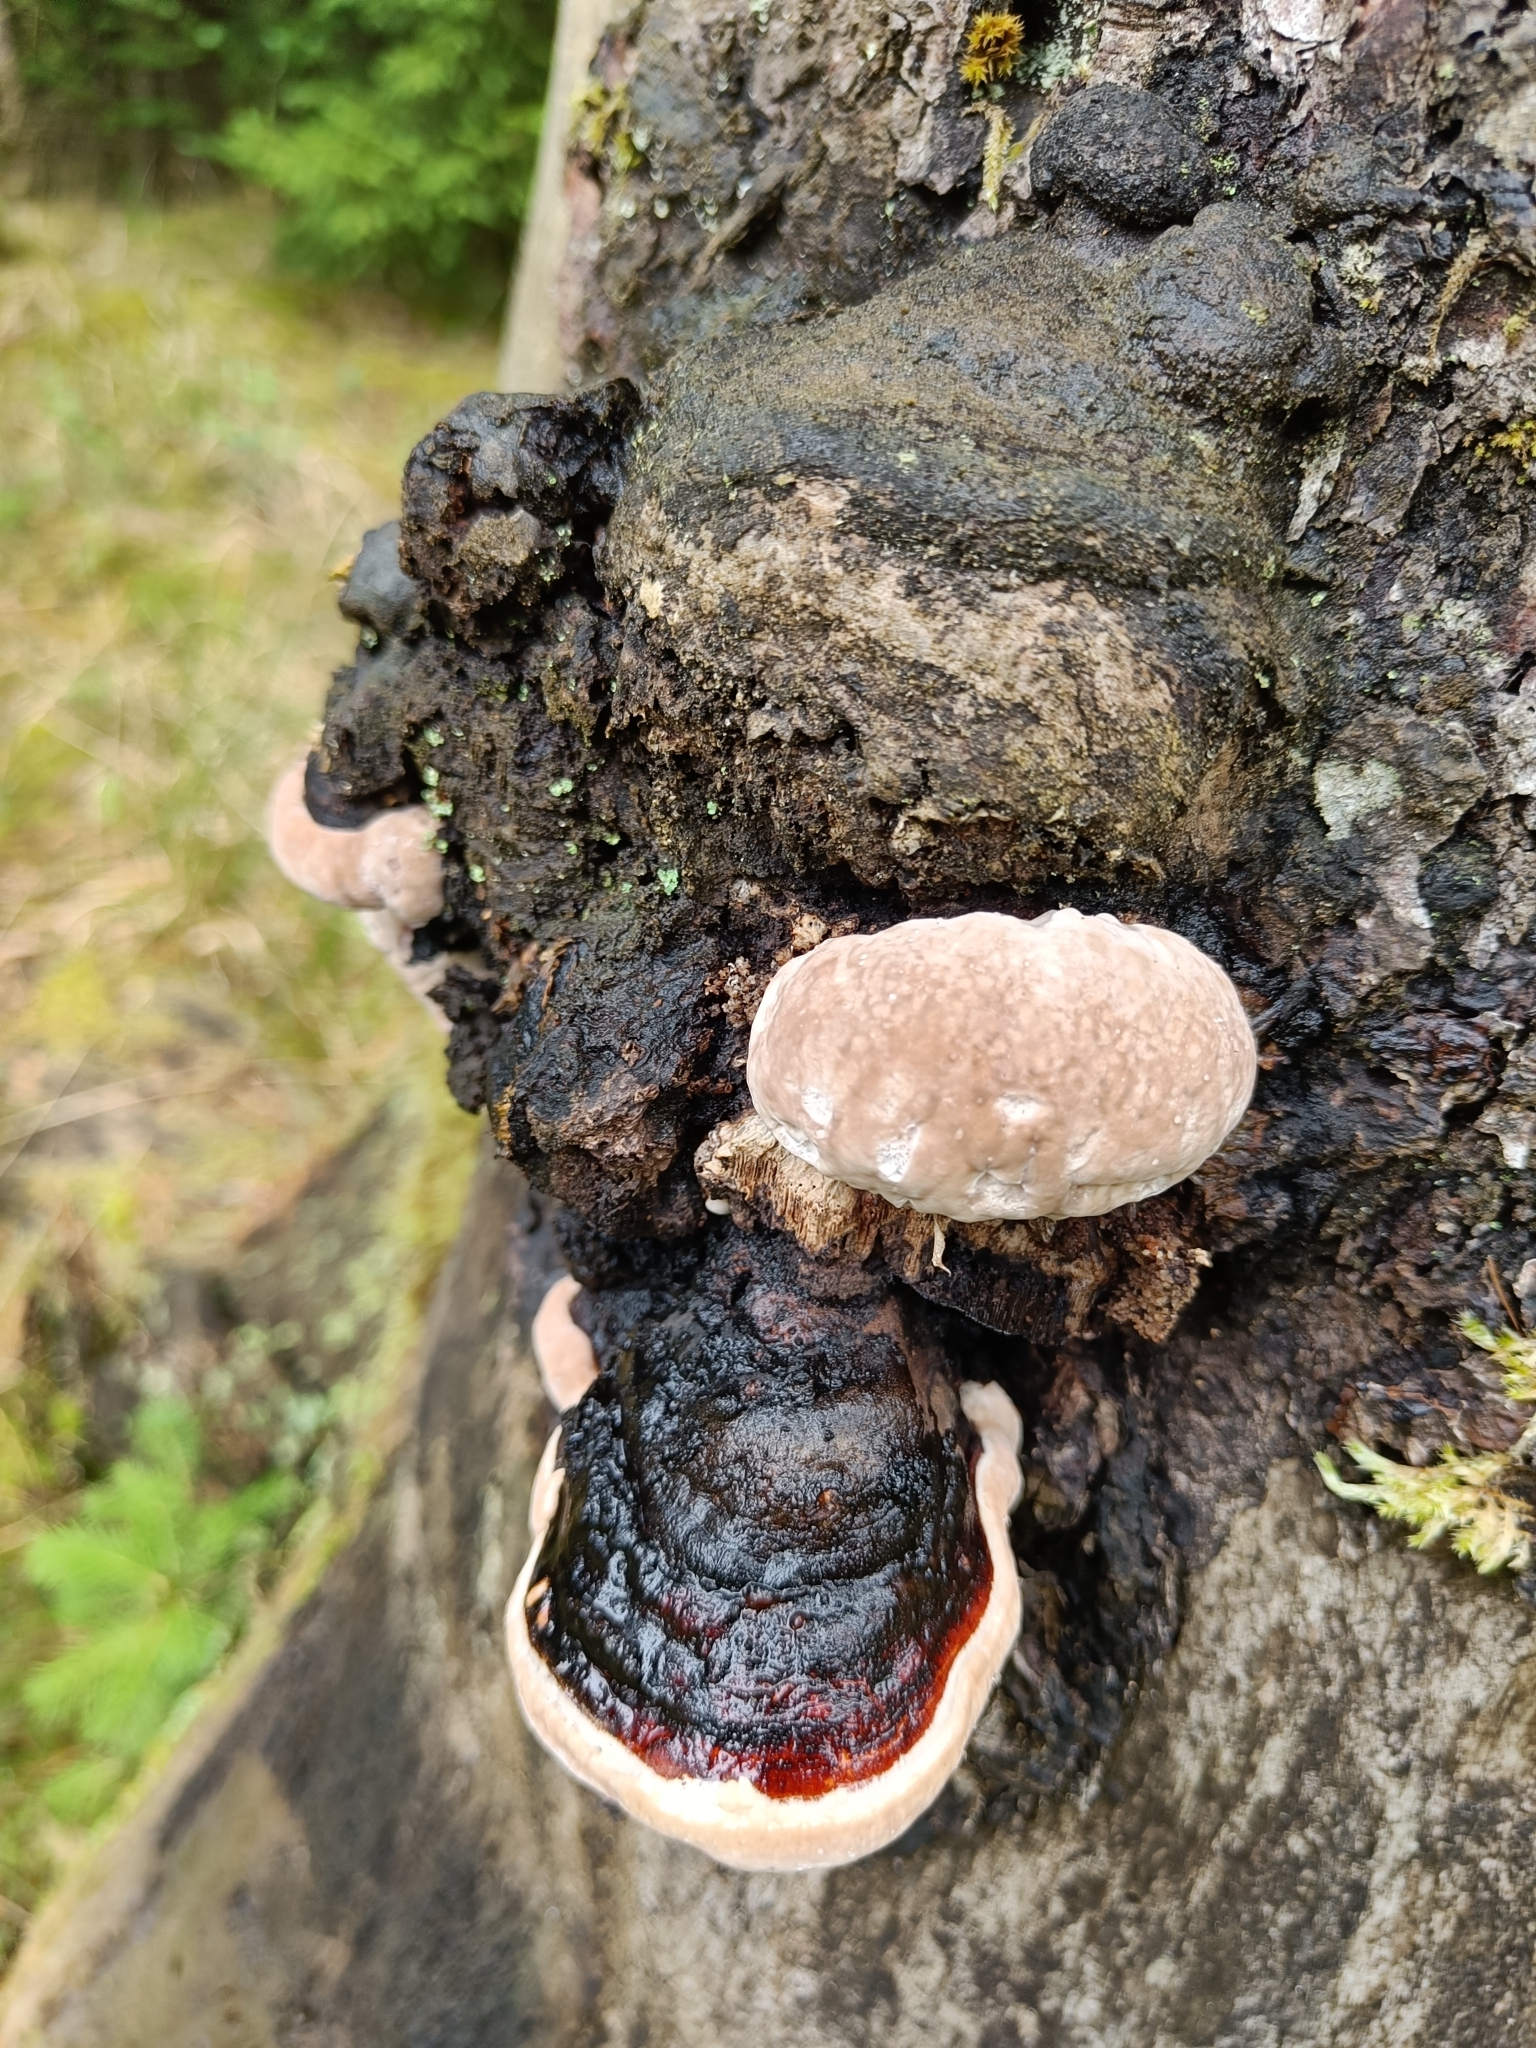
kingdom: Fungi
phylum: Basidiomycota
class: Agaricomycetes
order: Polyporales
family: Fomitopsidaceae
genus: Fomitopsis
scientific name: Fomitopsis pinicola
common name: Red-belted bracket
